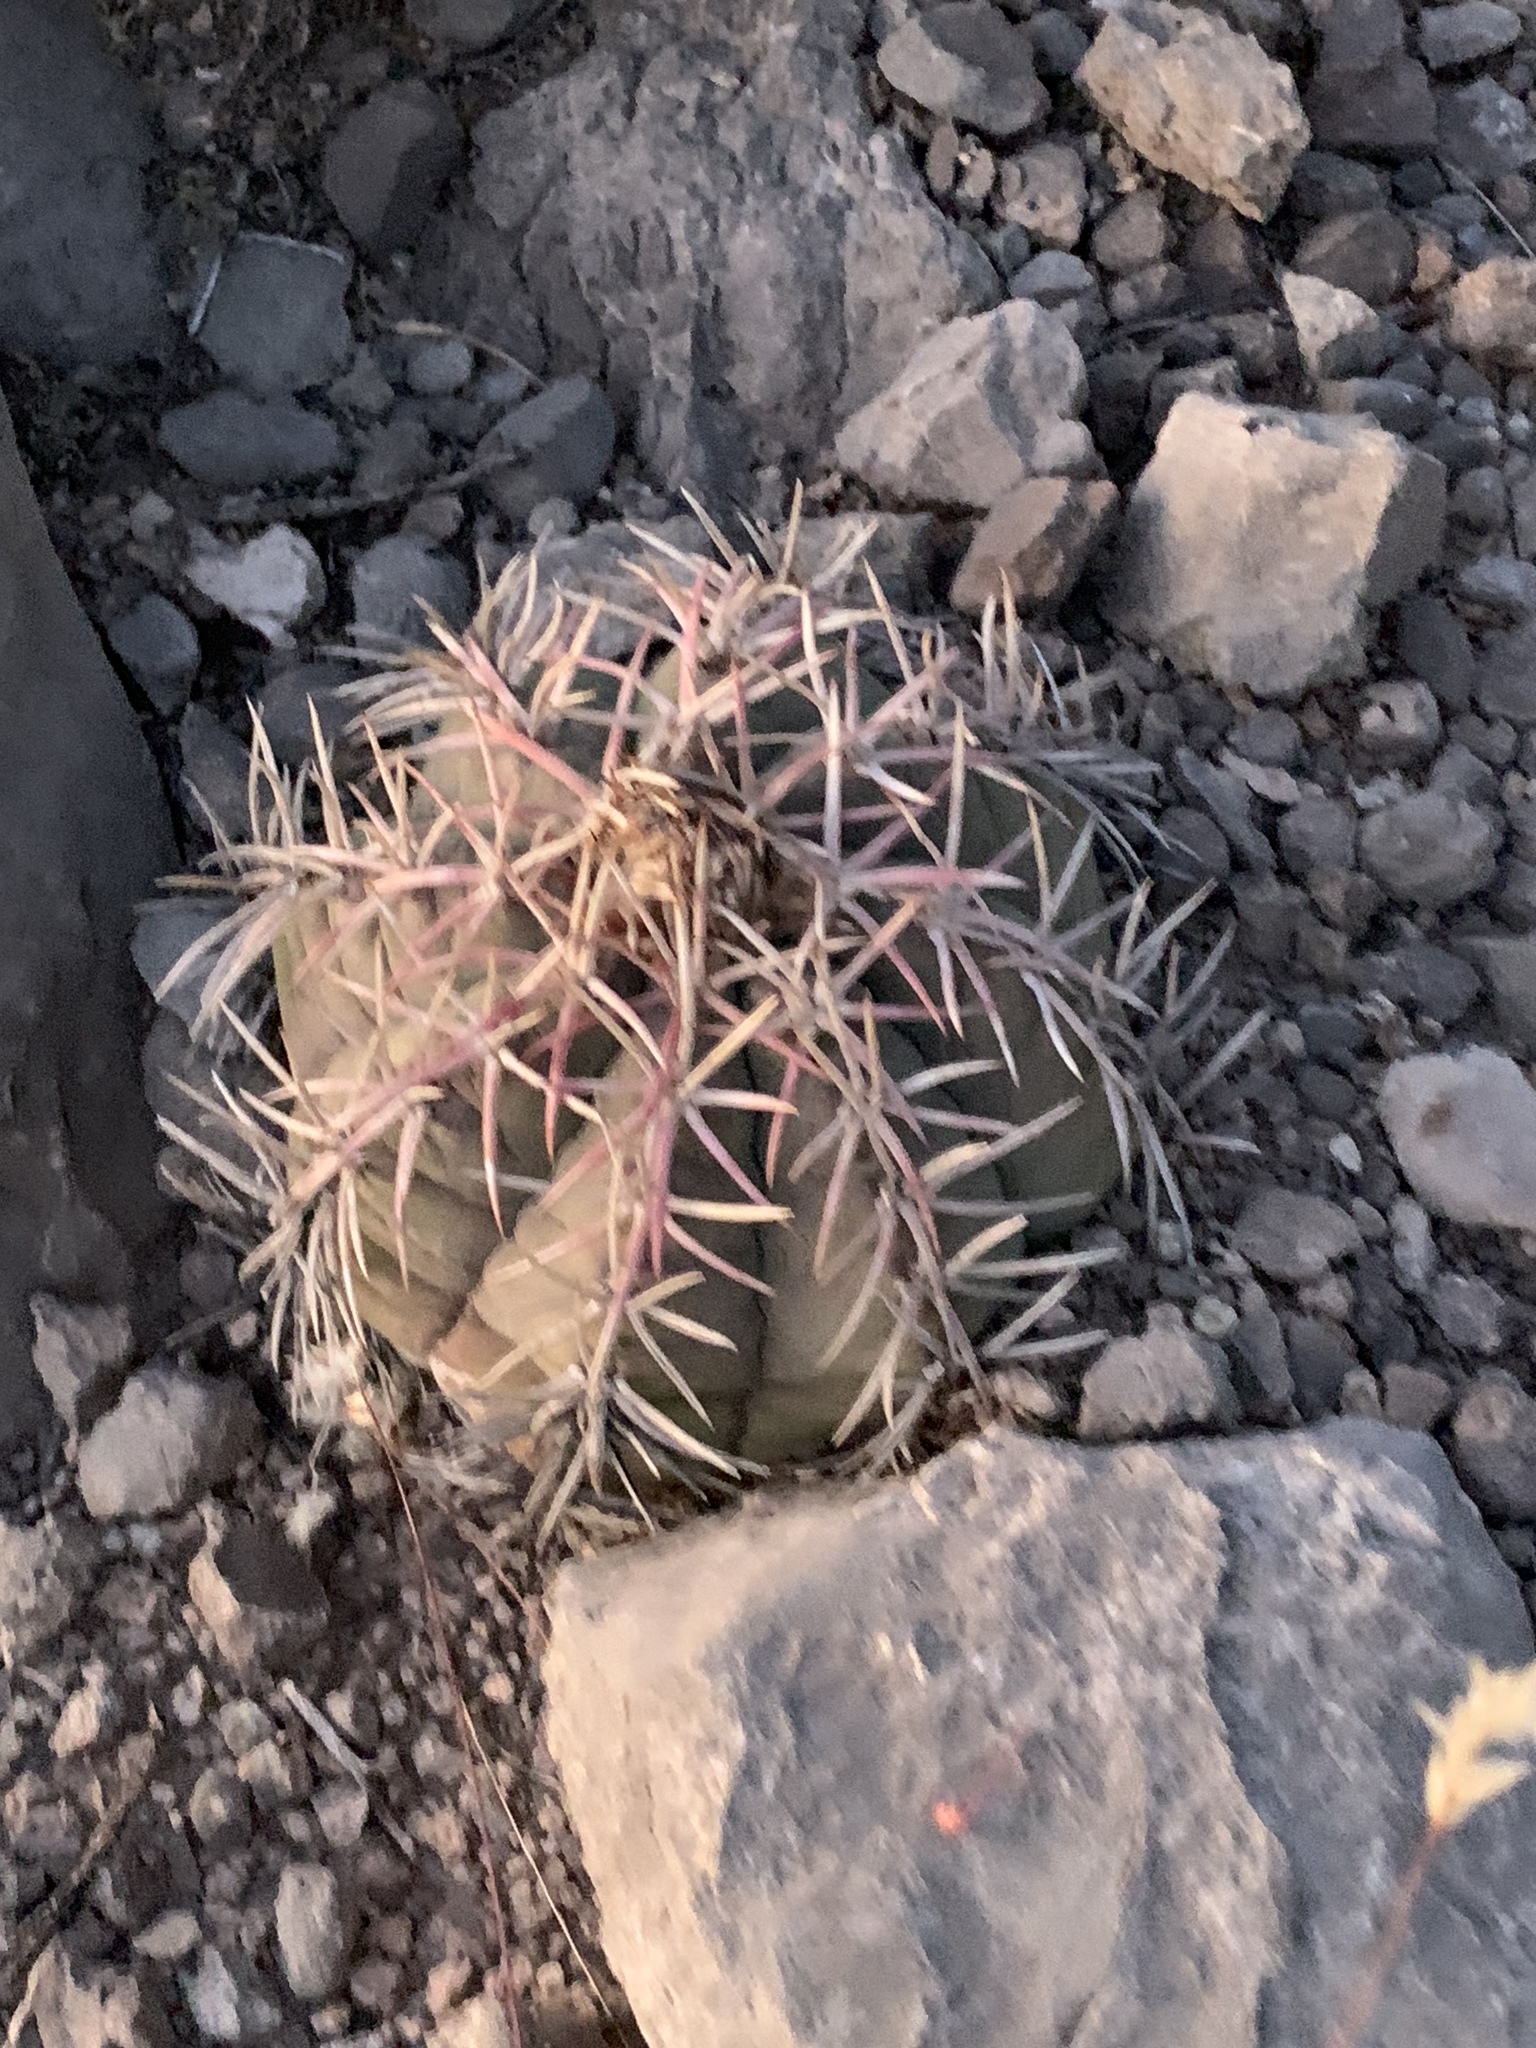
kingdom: Plantae
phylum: Tracheophyta
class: Magnoliopsida
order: Caryophyllales
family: Cactaceae
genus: Echinocactus
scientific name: Echinocactus horizonthalonius
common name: Devilshead
